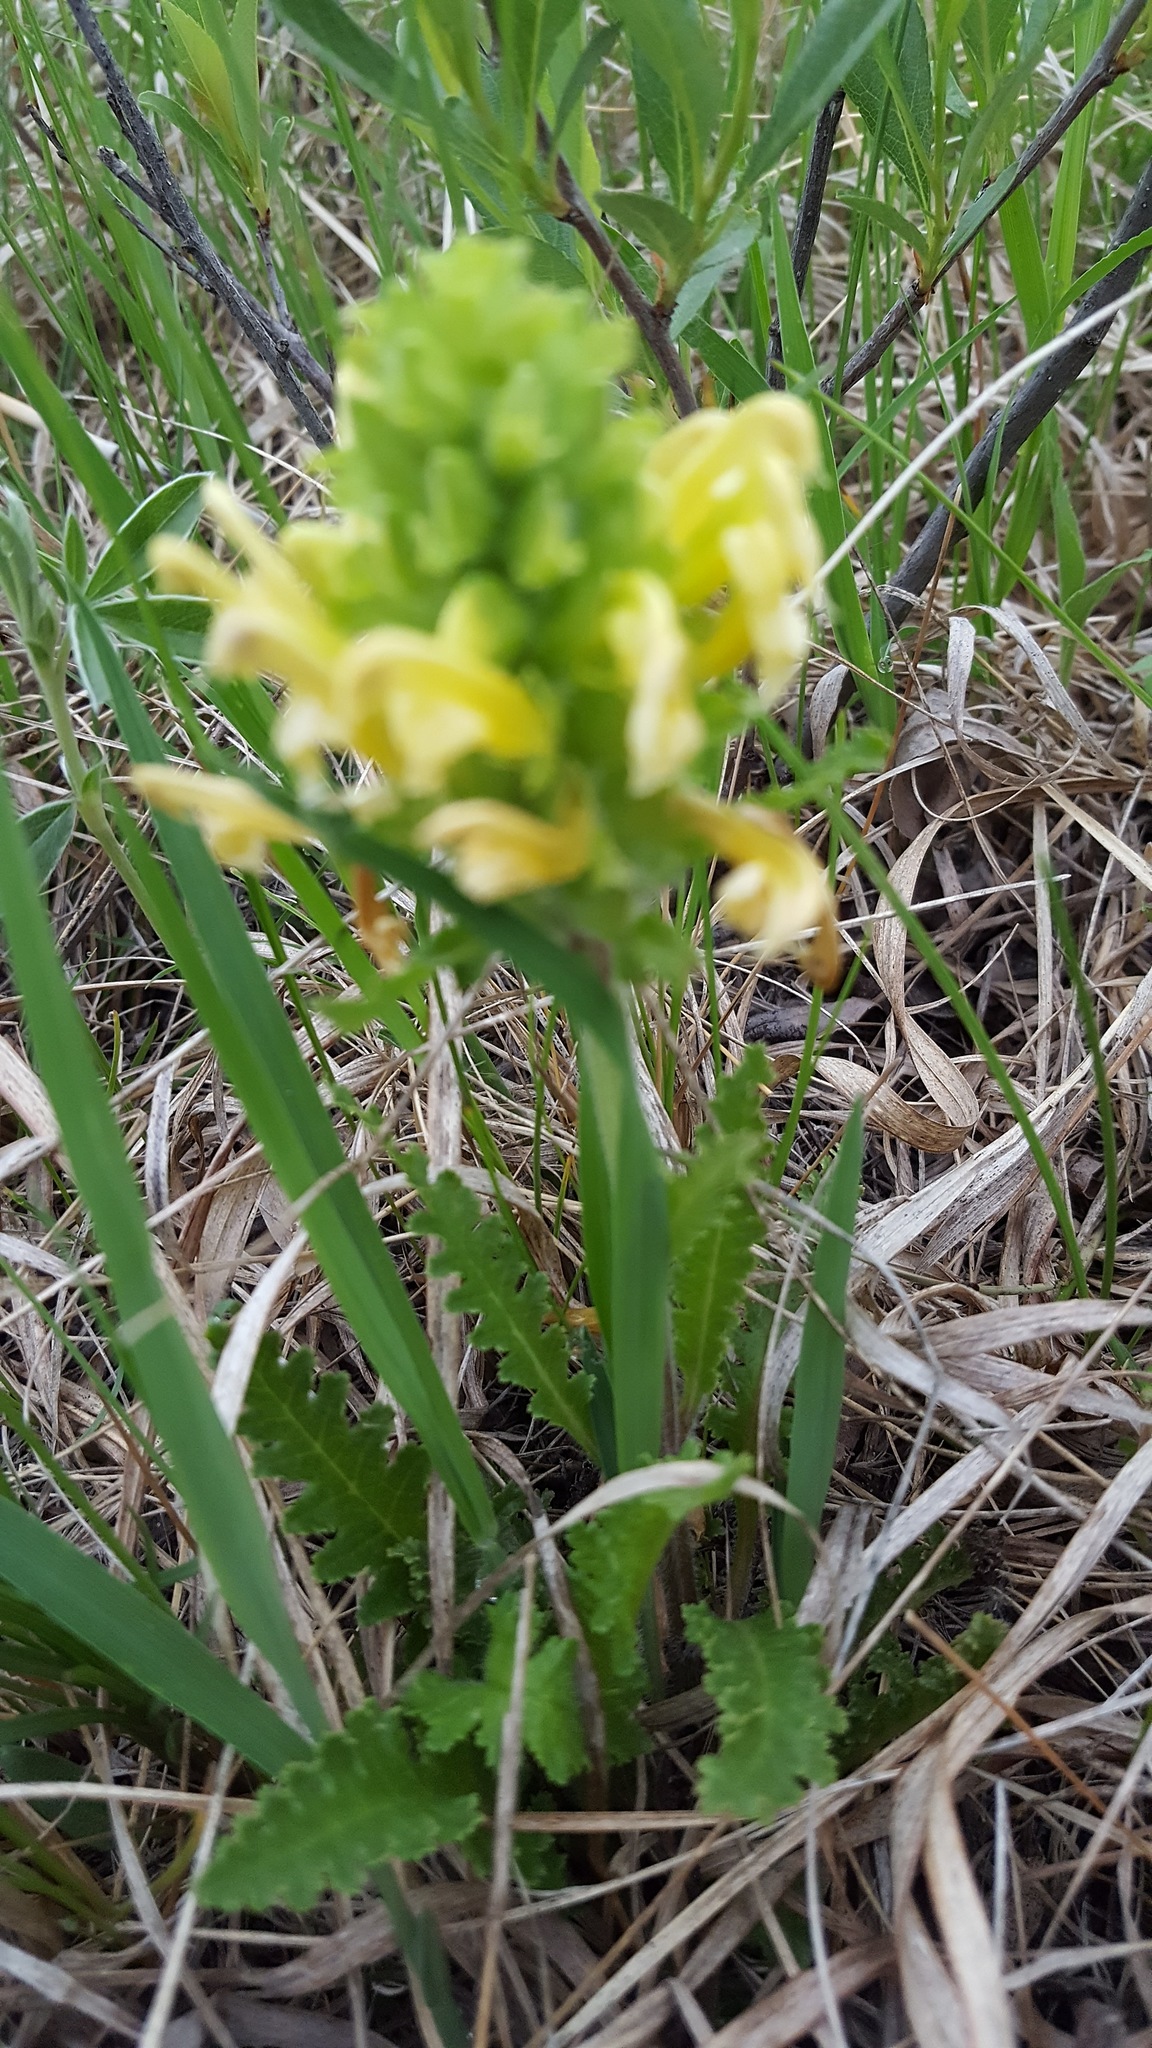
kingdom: Plantae
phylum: Tracheophyta
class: Magnoliopsida
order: Lamiales
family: Orobanchaceae
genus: Pedicularis
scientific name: Pedicularis canadensis
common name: Early lousewort
